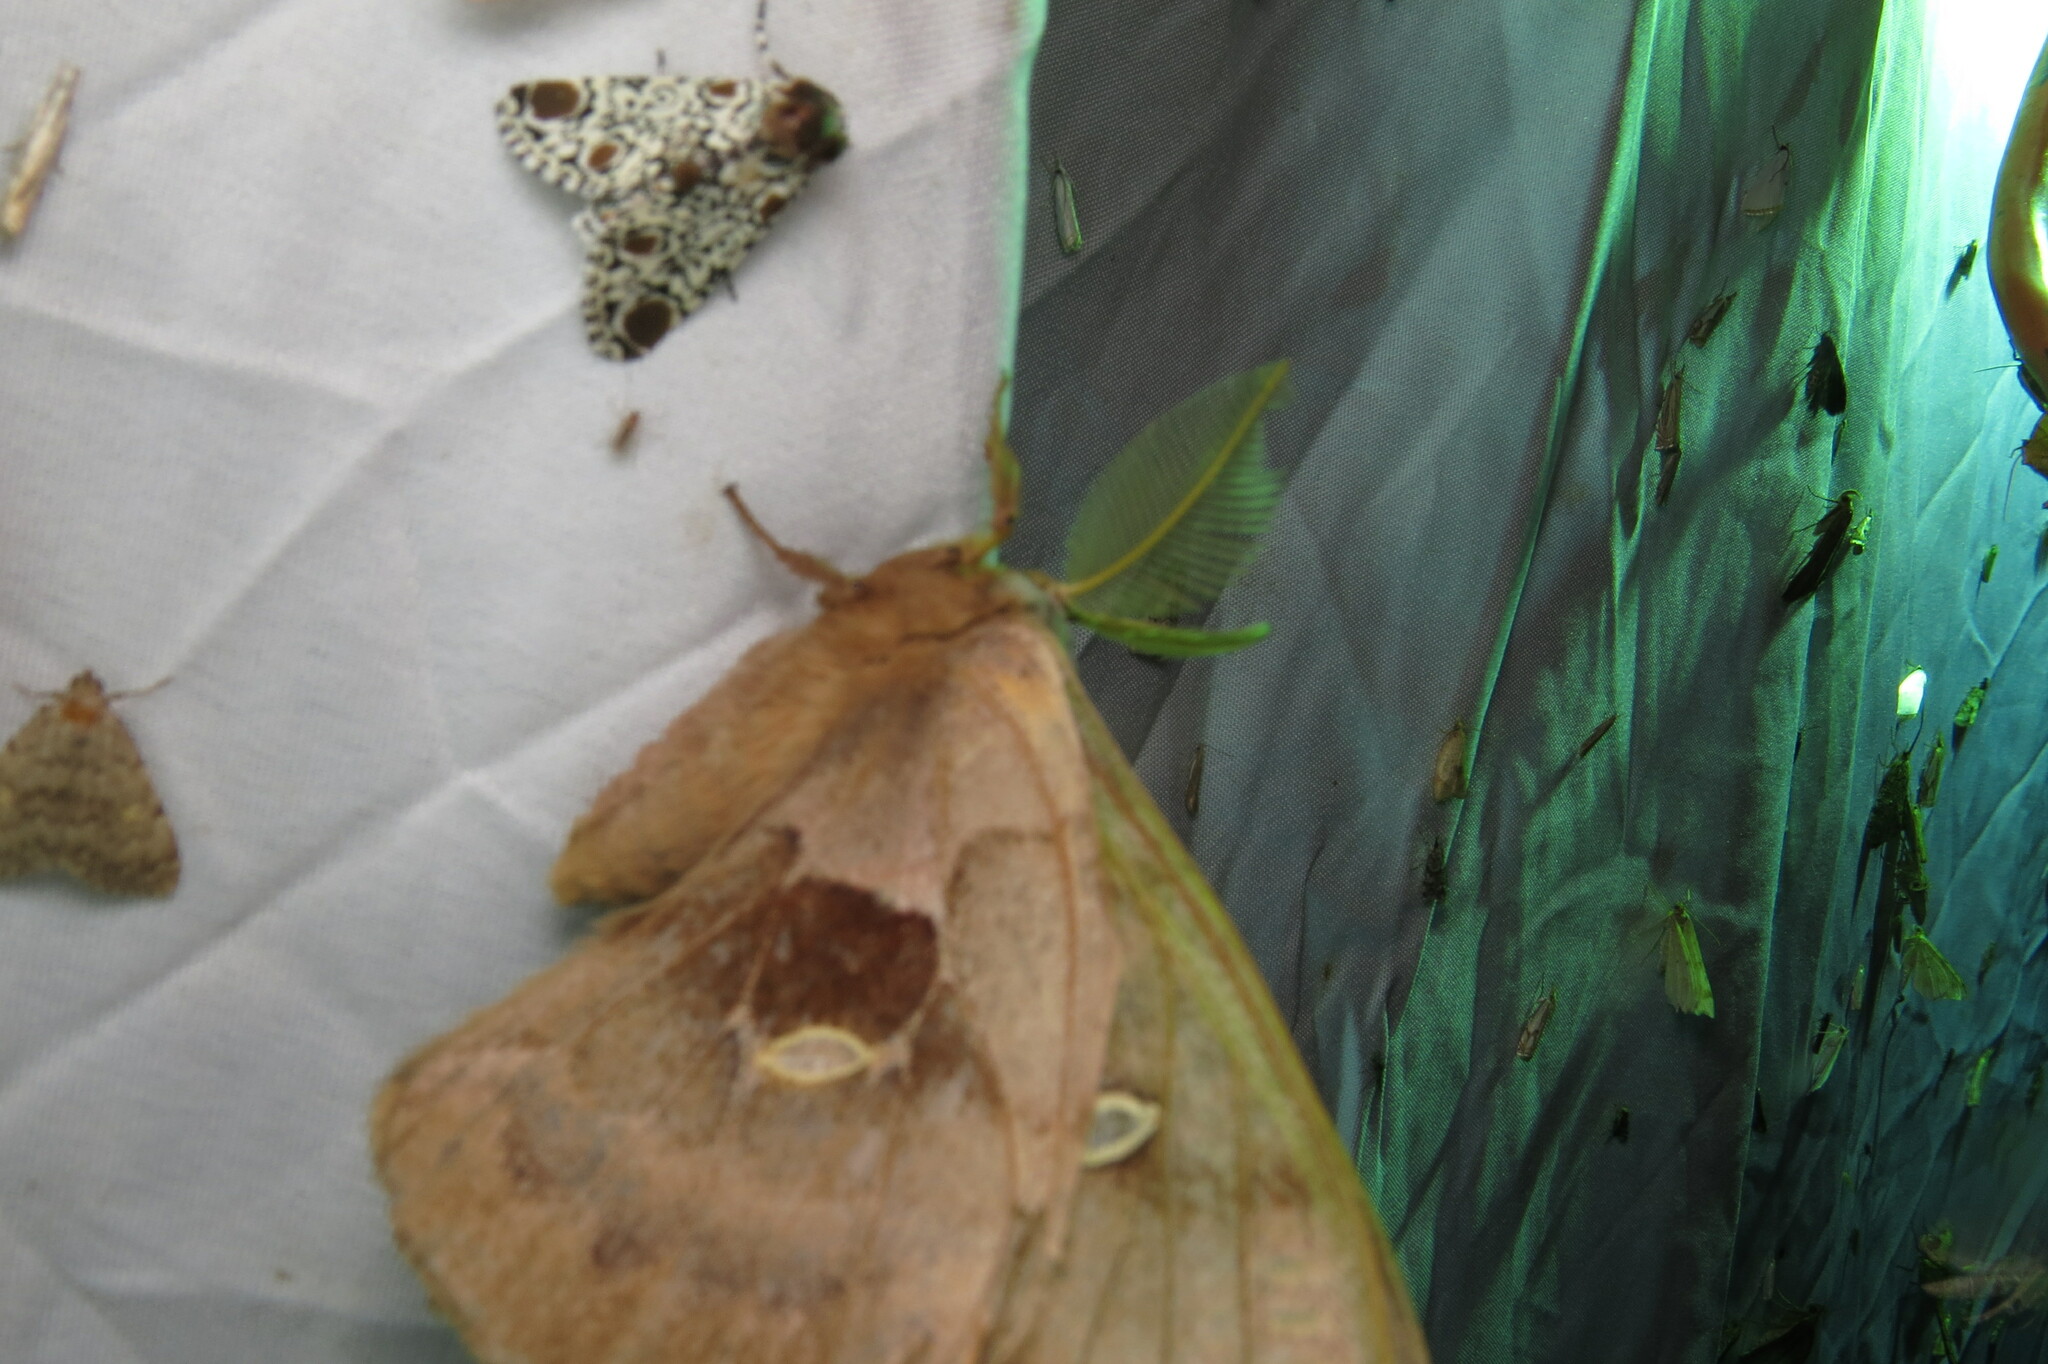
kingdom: Animalia
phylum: Arthropoda
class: Insecta
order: Lepidoptera
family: Saturniidae
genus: Antheraea
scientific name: Antheraea polyphemus
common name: Polyphemus moth
